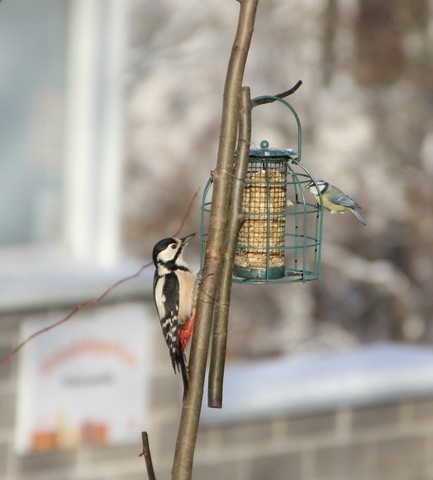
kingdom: Animalia
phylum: Chordata
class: Aves
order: Piciformes
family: Picidae
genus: Dendrocopos
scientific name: Dendrocopos major
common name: Great spotted woodpecker
